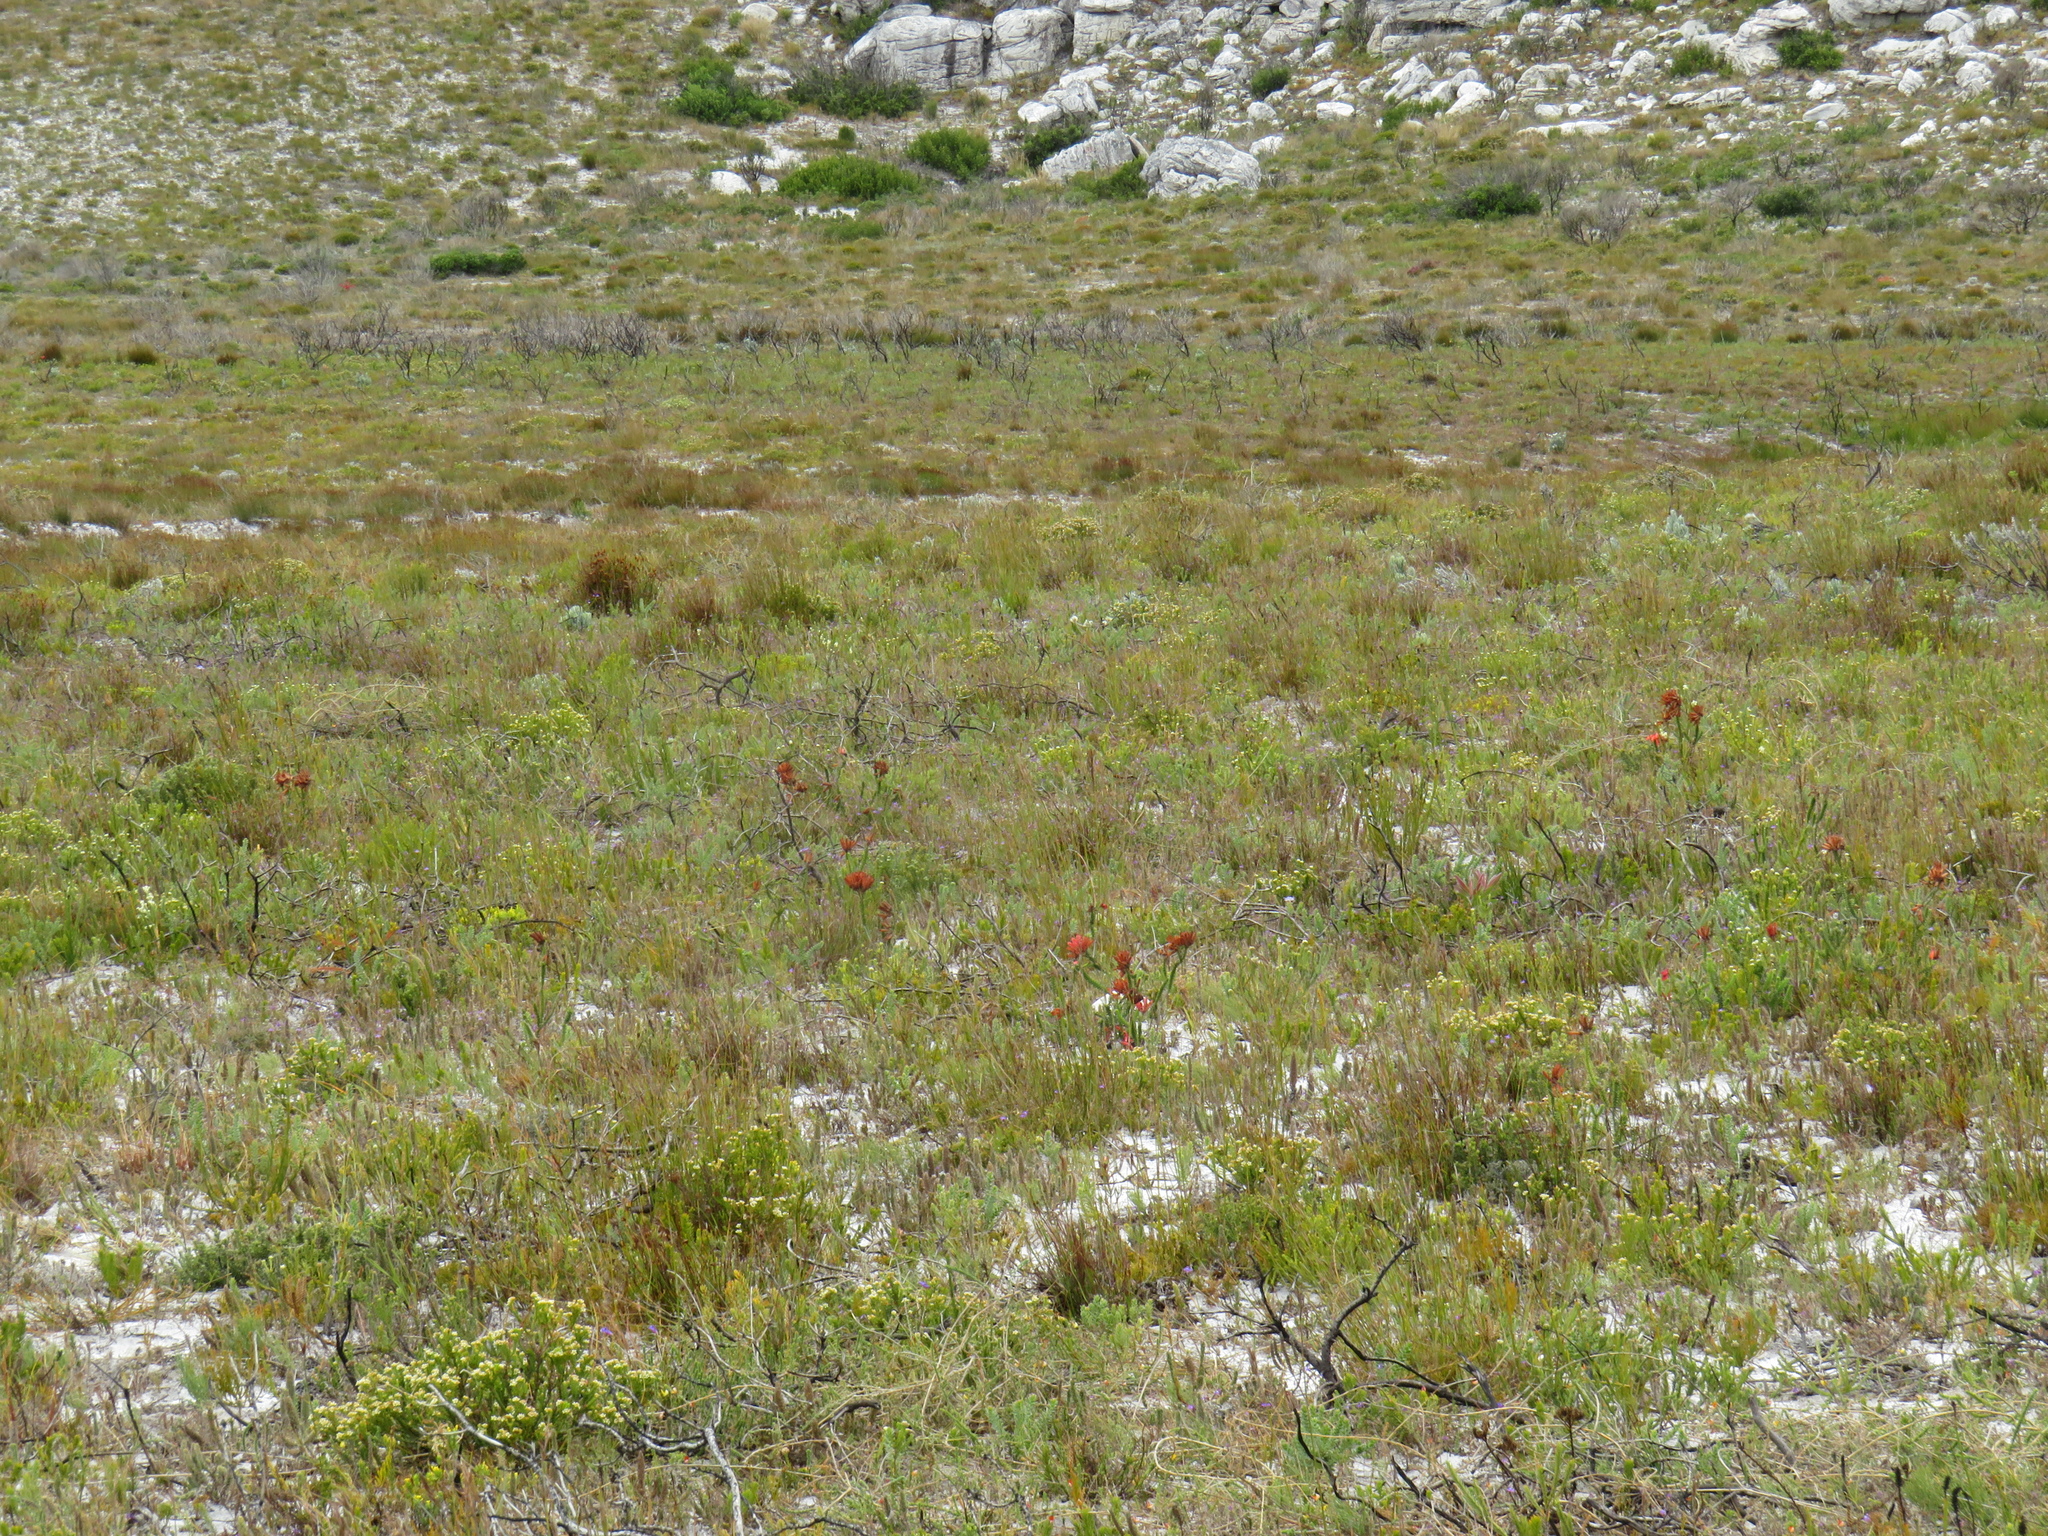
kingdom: Plantae
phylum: Tracheophyta
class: Magnoliopsida
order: Ericales
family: Ericaceae
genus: Erica
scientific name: Erica cerinthoides
